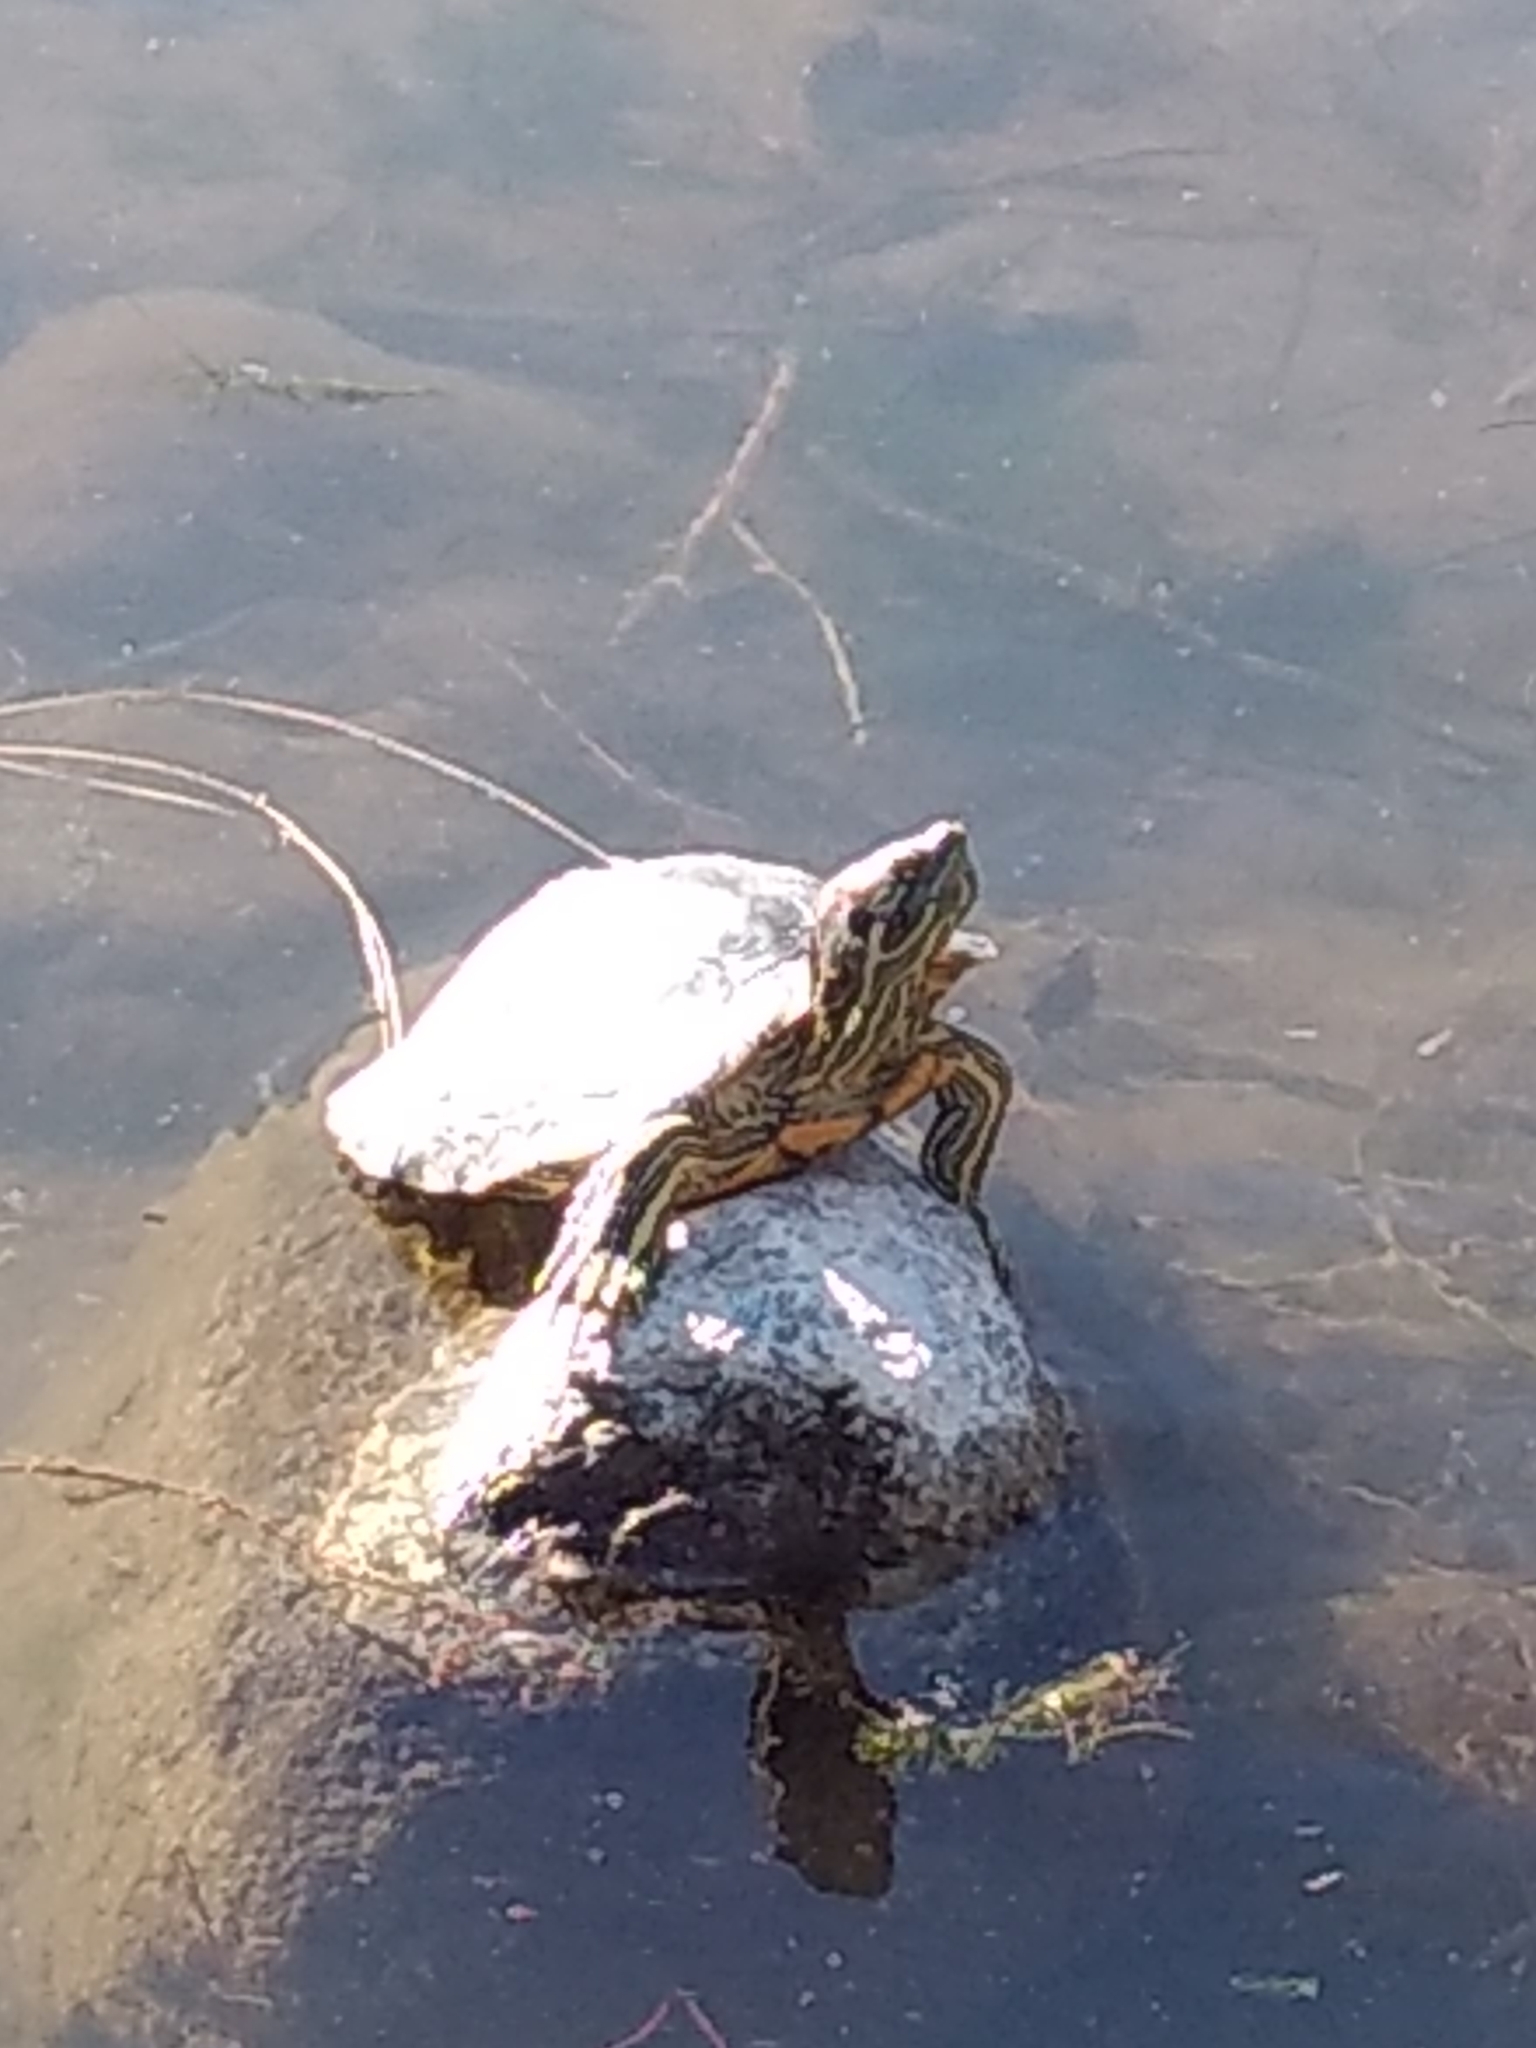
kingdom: Animalia
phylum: Chordata
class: Testudines
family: Emydidae
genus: Trachemys
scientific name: Trachemys scripta
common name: Slider
